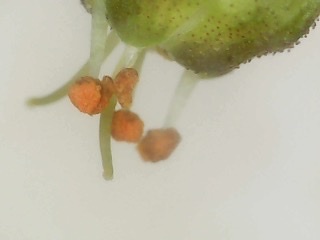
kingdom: Plantae
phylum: Tracheophyta
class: Magnoliopsida
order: Saxifragales
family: Saxifragaceae
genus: Heuchera
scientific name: Heuchera caroliniana
